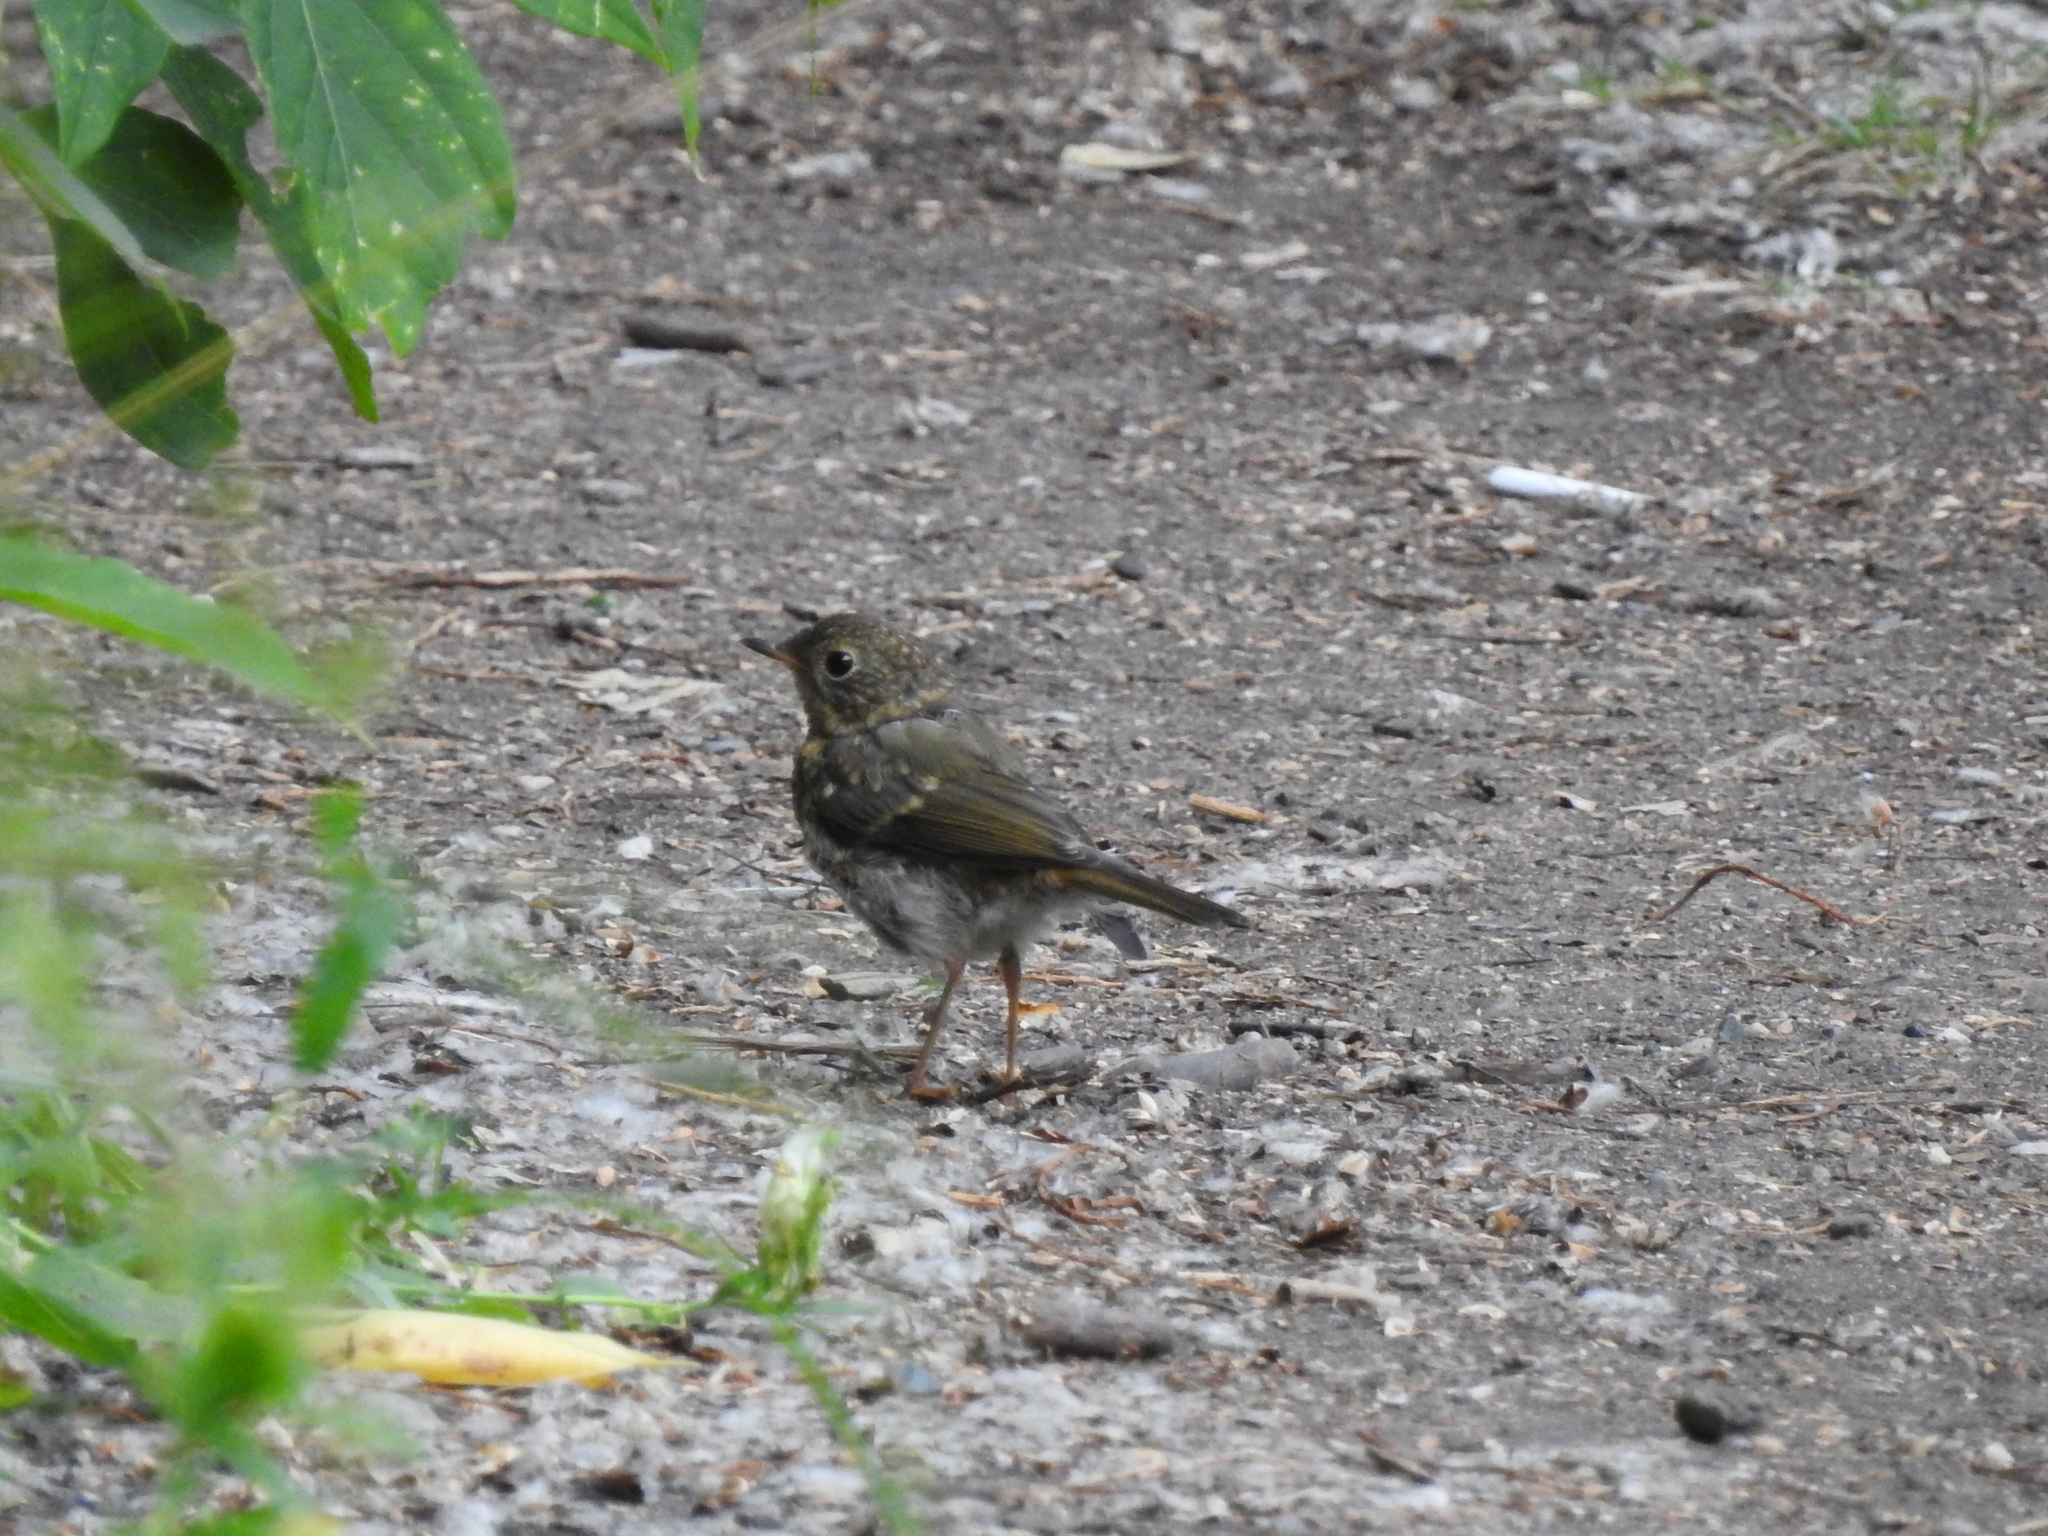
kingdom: Animalia
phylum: Chordata
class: Aves
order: Passeriformes
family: Muscicapidae
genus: Erithacus
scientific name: Erithacus rubecula
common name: European robin
